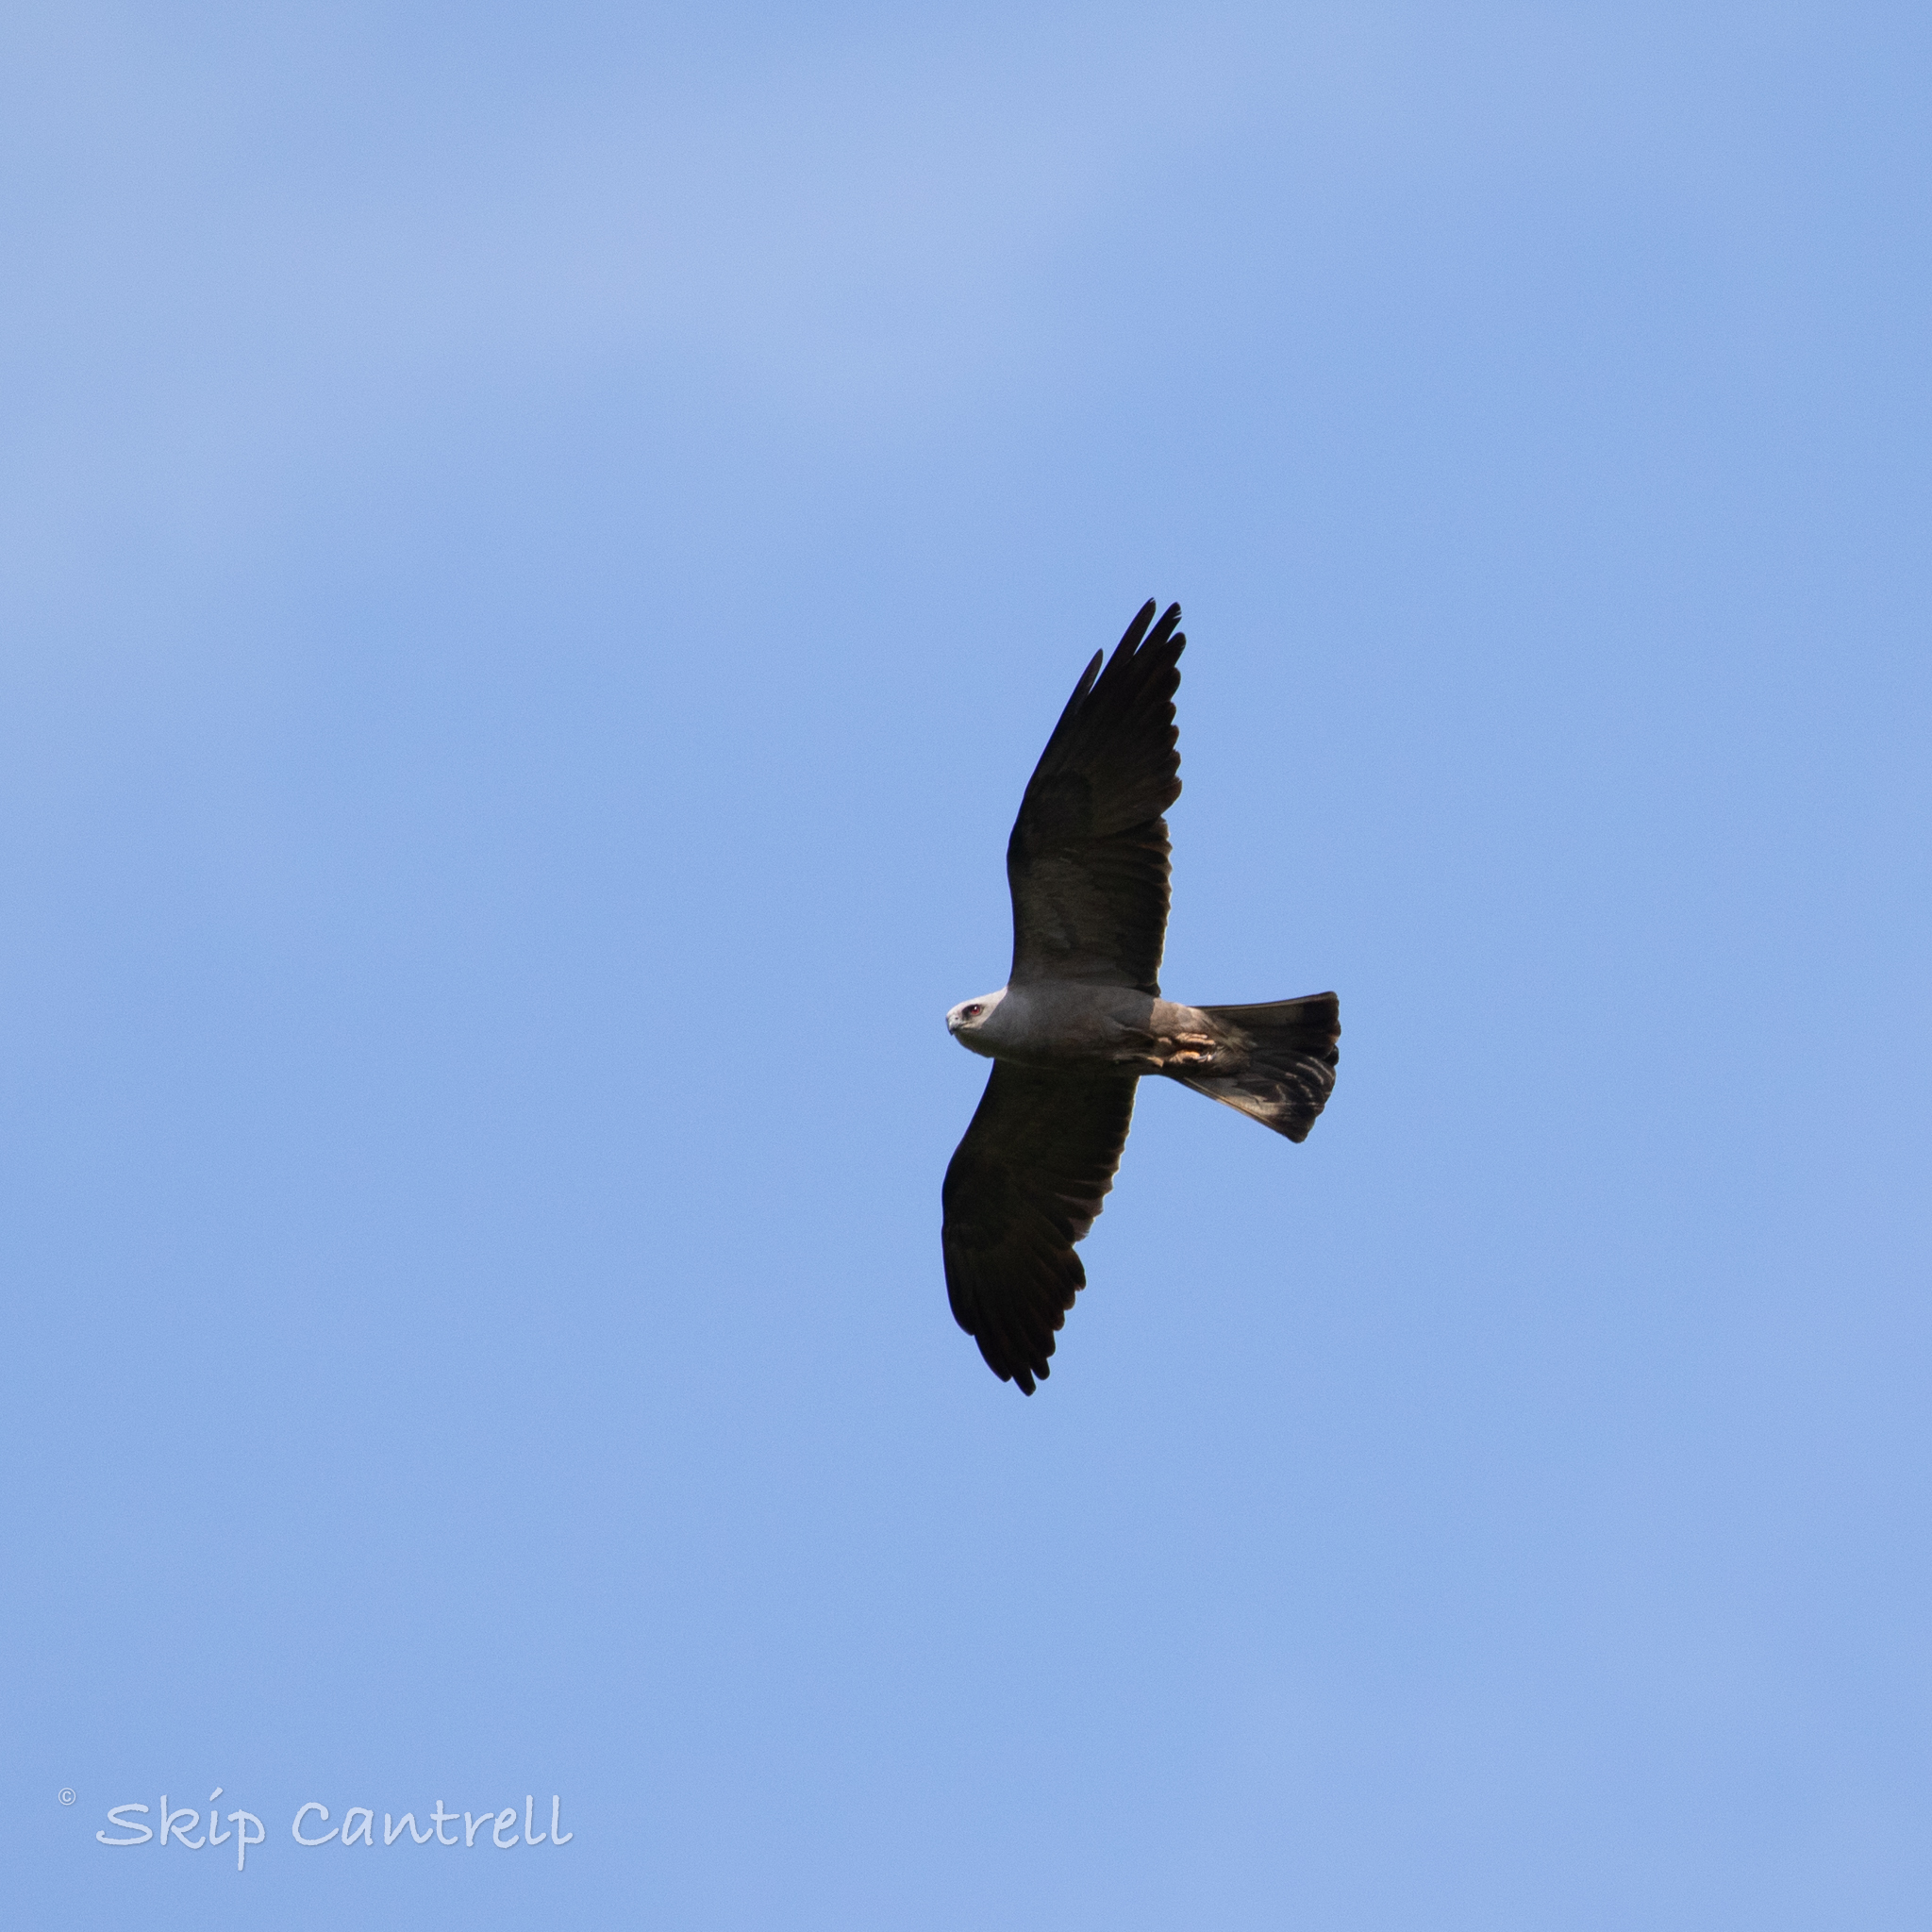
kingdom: Animalia
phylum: Chordata
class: Aves
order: Accipitriformes
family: Accipitridae
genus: Ictinia
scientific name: Ictinia mississippiensis
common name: Mississippi kite
